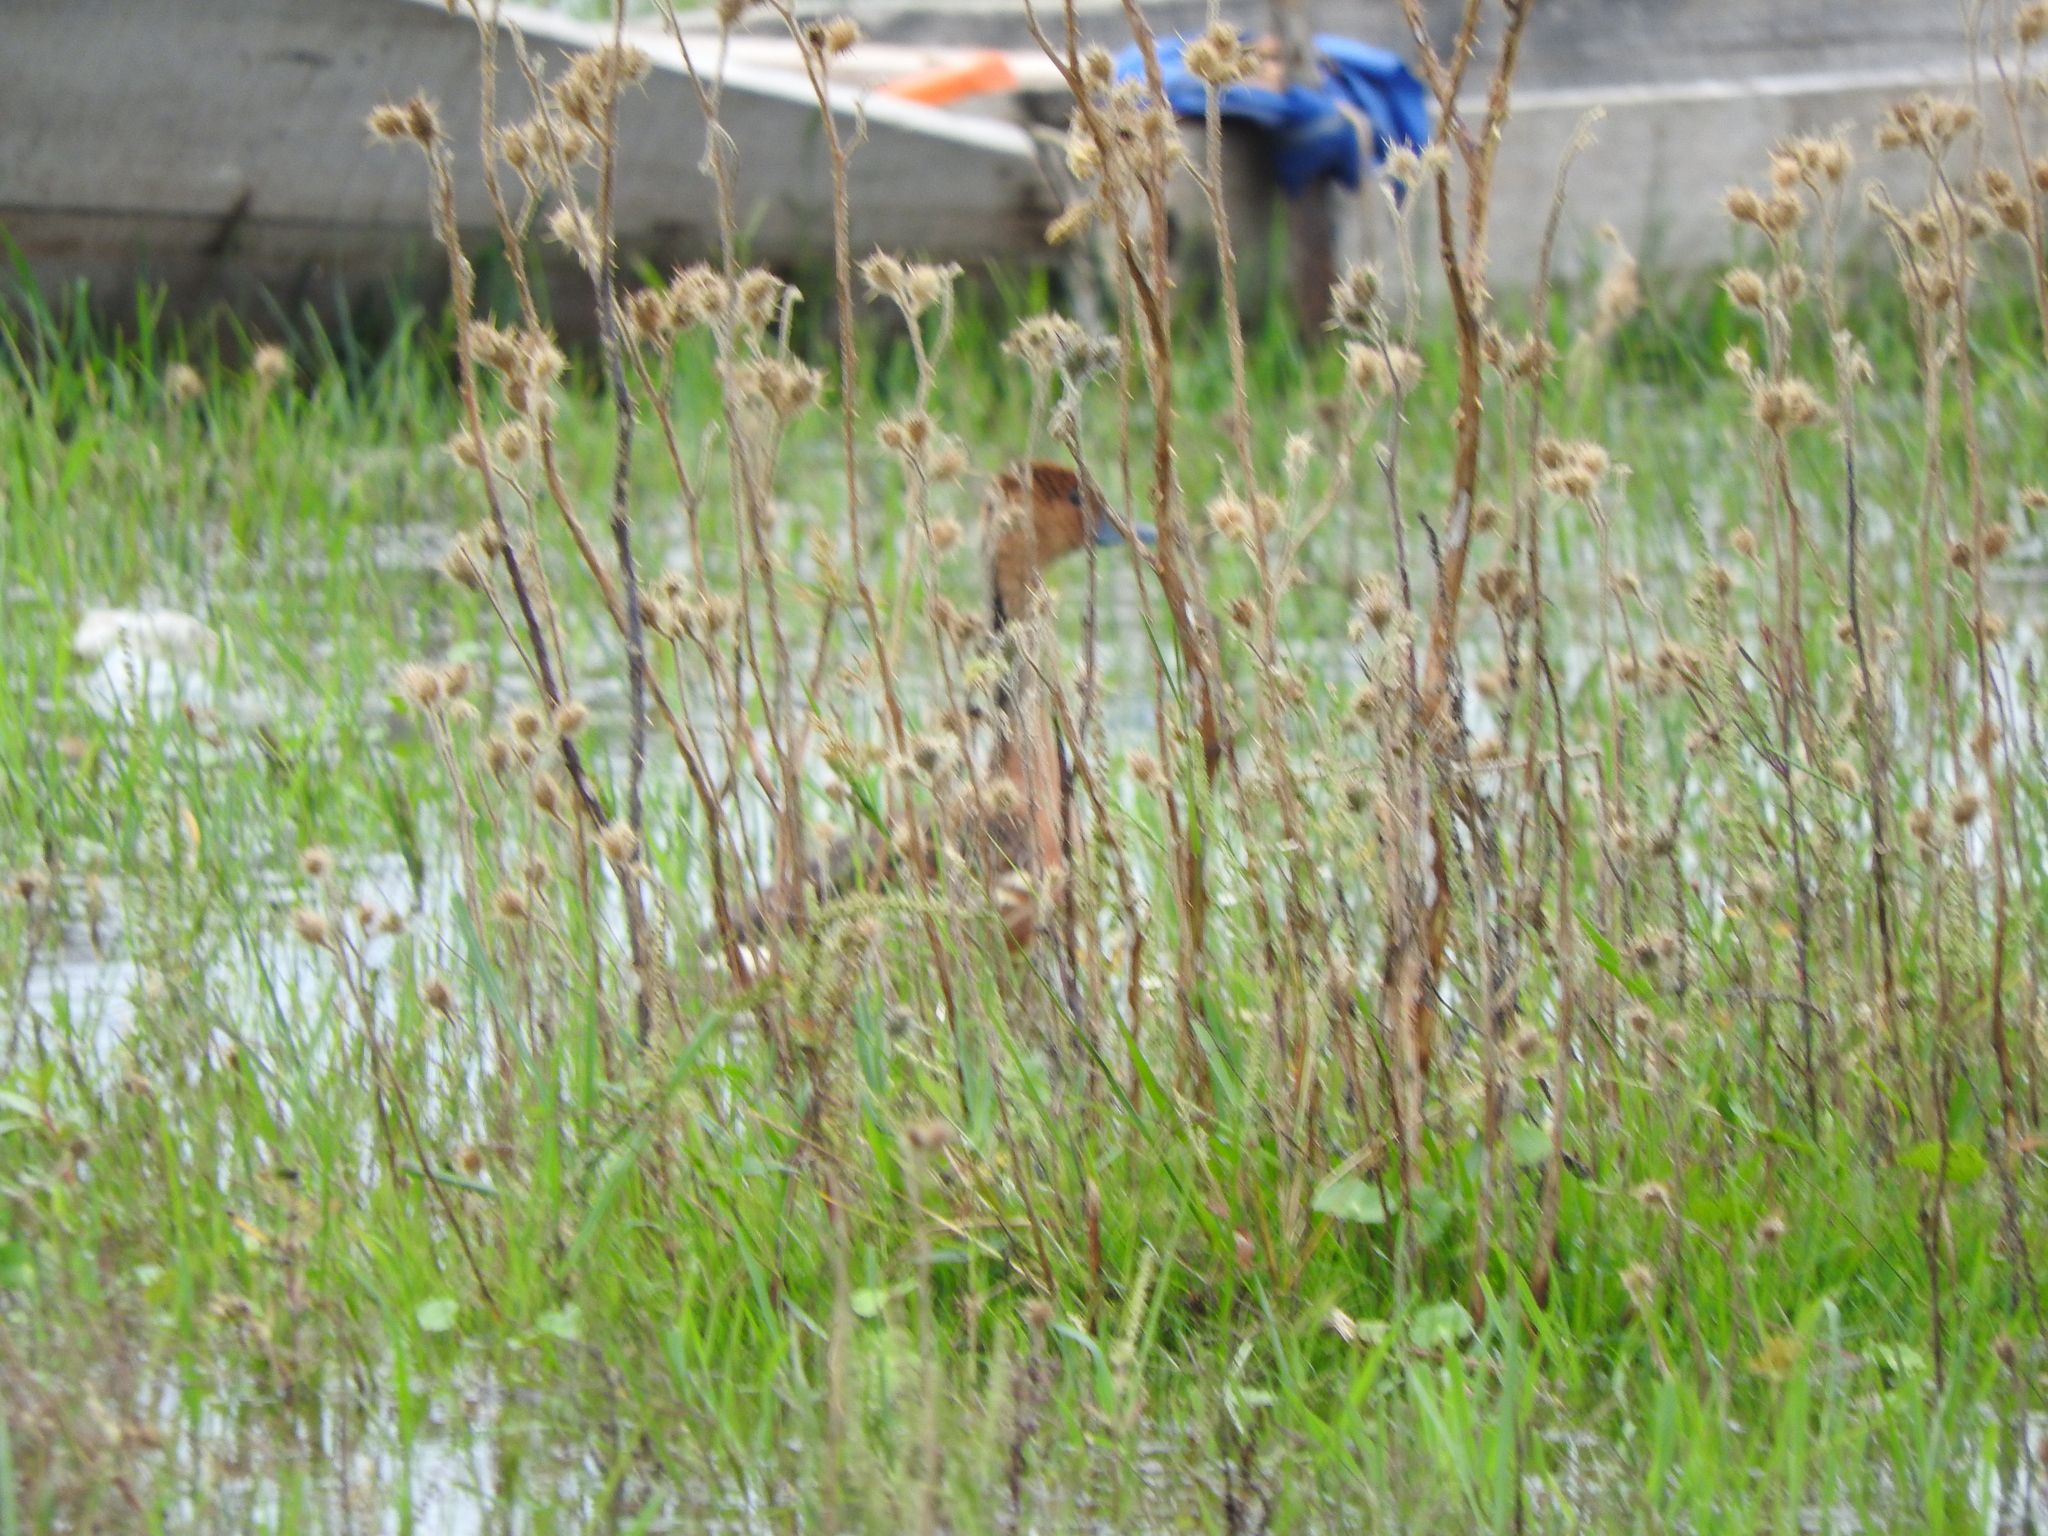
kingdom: Animalia
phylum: Chordata
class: Aves
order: Anseriformes
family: Anatidae
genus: Dendrocygna
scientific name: Dendrocygna bicolor
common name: Fulvous whistling duck
